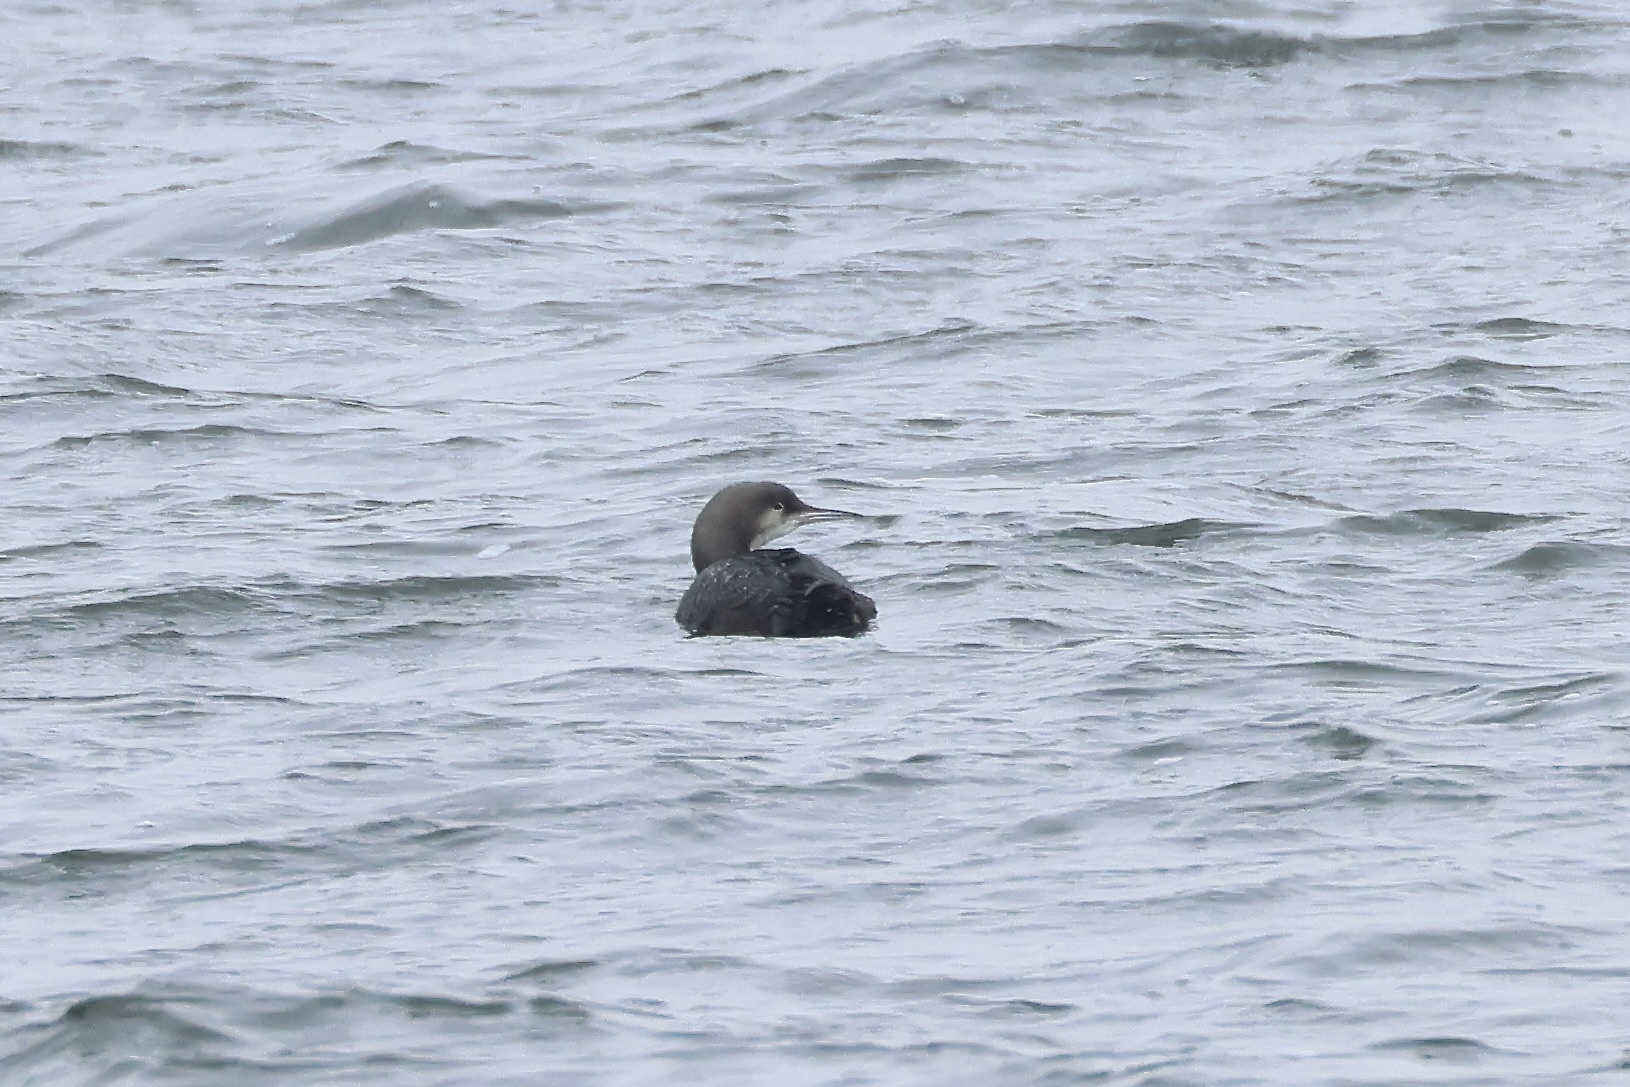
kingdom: Animalia
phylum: Chordata
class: Aves
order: Gaviiformes
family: Gaviidae
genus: Gavia
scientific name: Gavia pacifica
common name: Pacific loon
